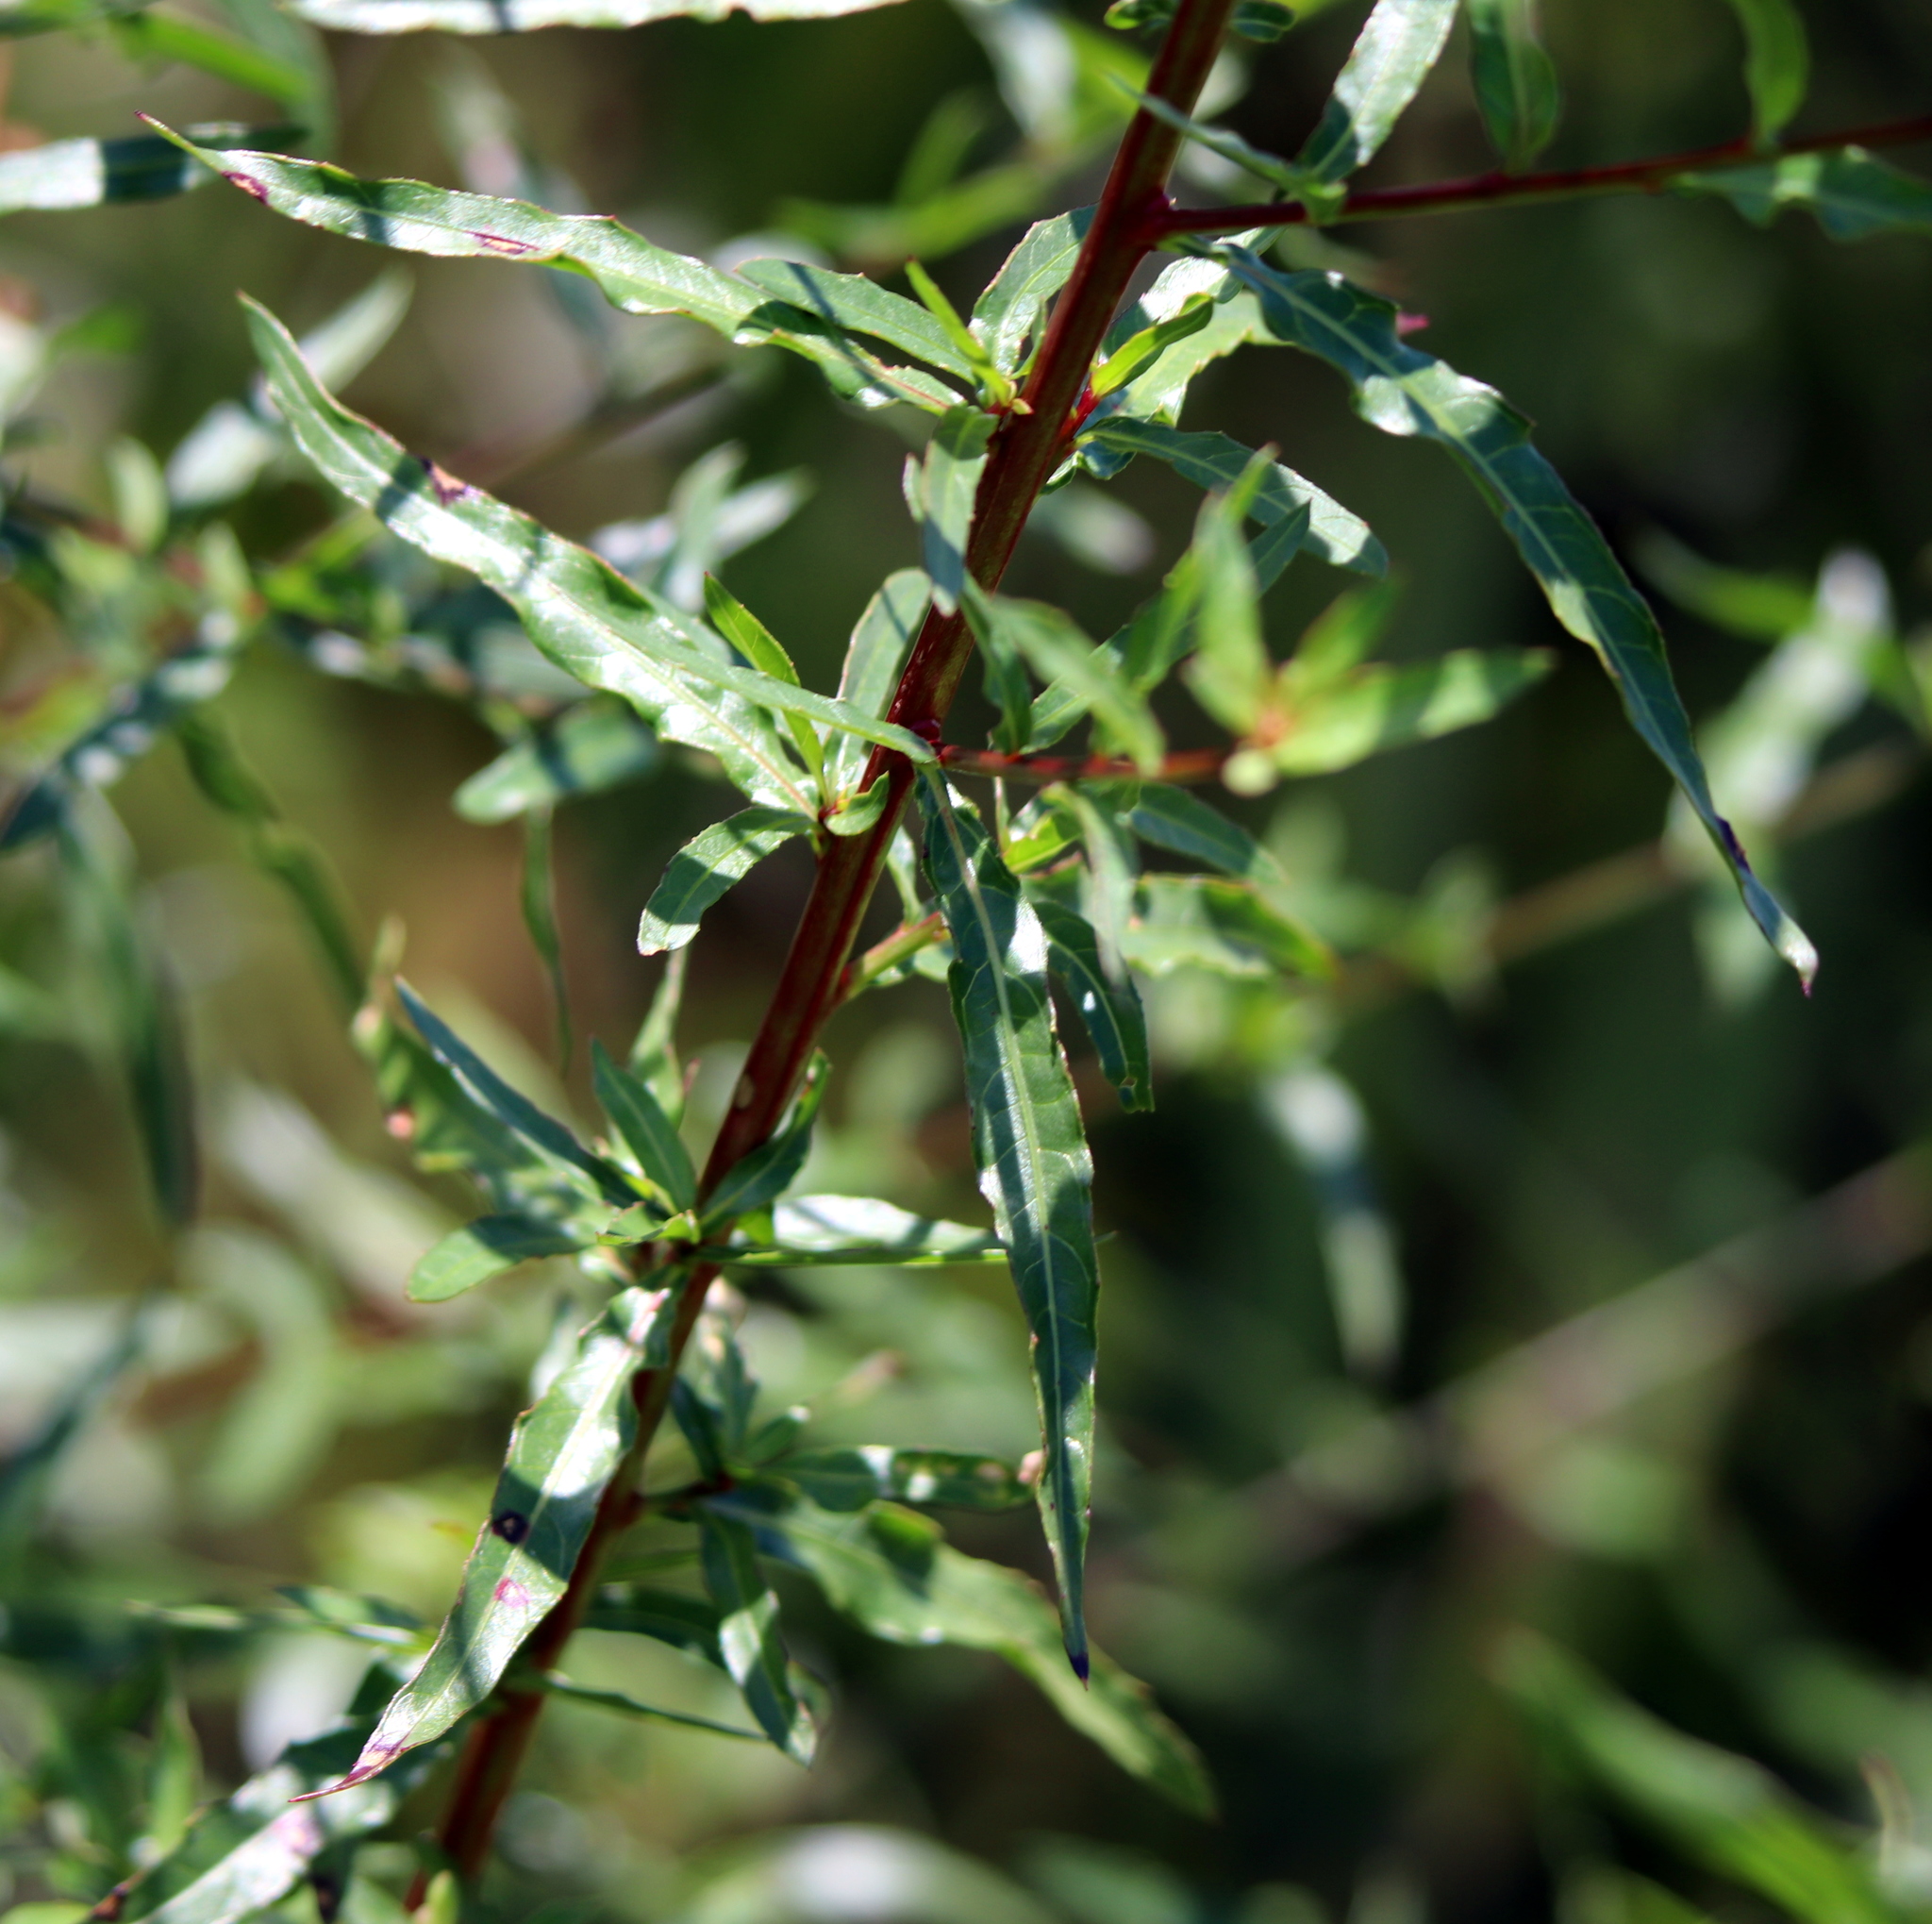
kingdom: Plantae
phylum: Tracheophyta
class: Magnoliopsida
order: Myrtales
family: Onagraceae
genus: Oenothera
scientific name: Oenothera filiformis
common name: Longflower beeblossom
